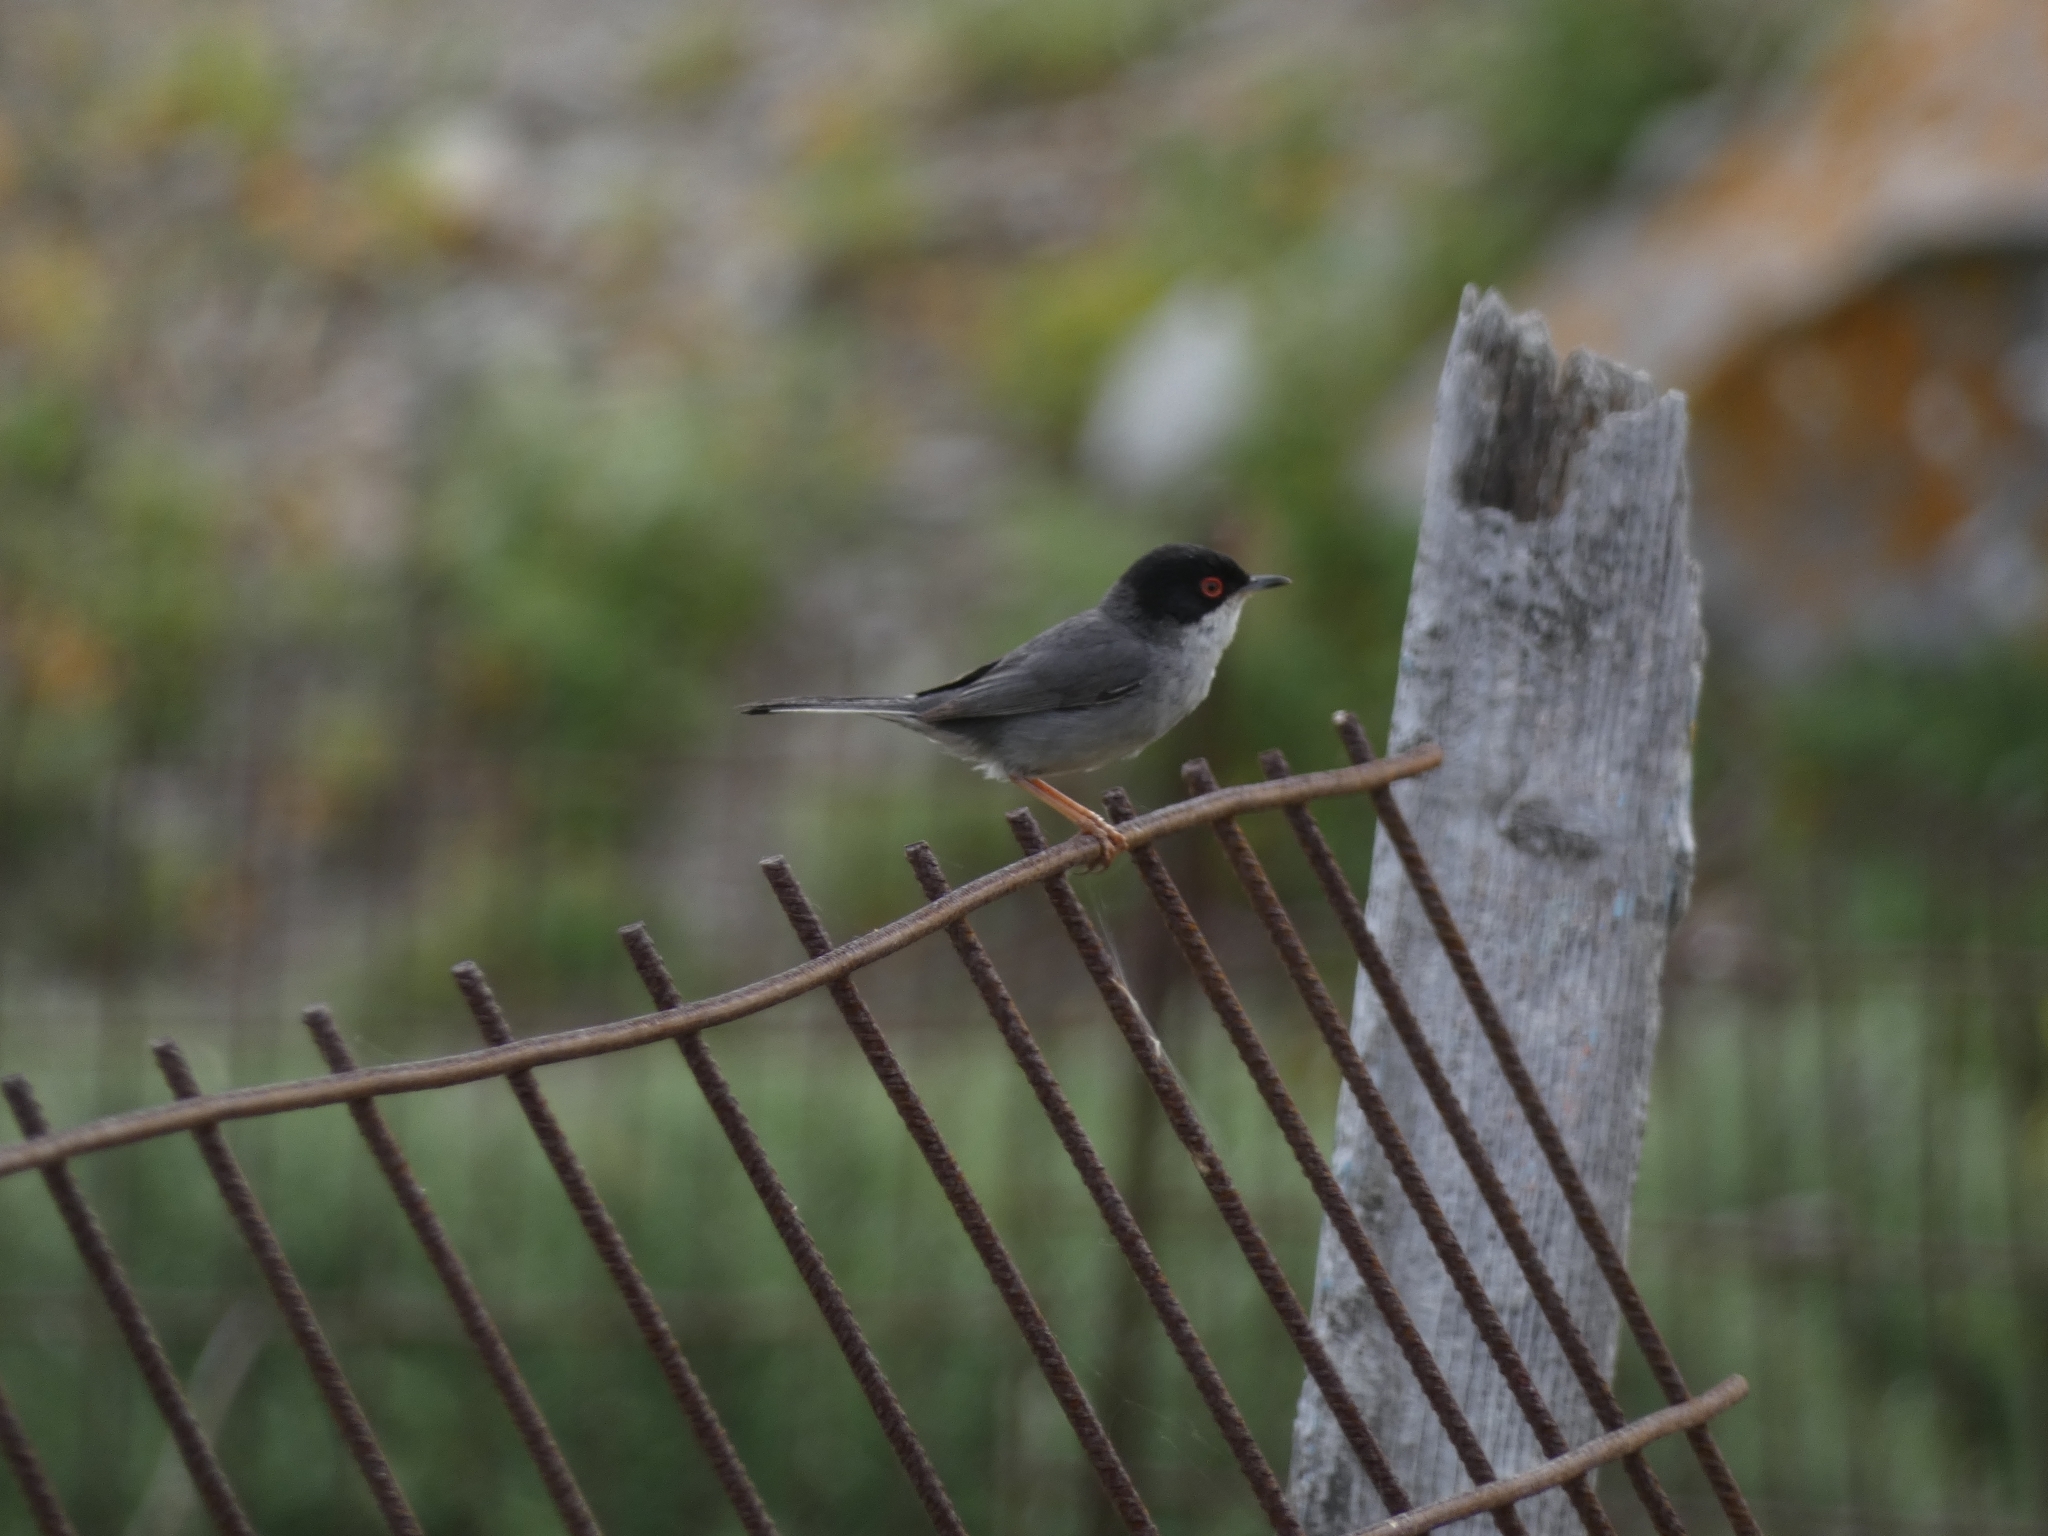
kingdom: Animalia
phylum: Chordata
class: Aves
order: Passeriformes
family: Sylviidae
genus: Curruca
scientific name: Curruca melanocephala
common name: Sardinian warbler
